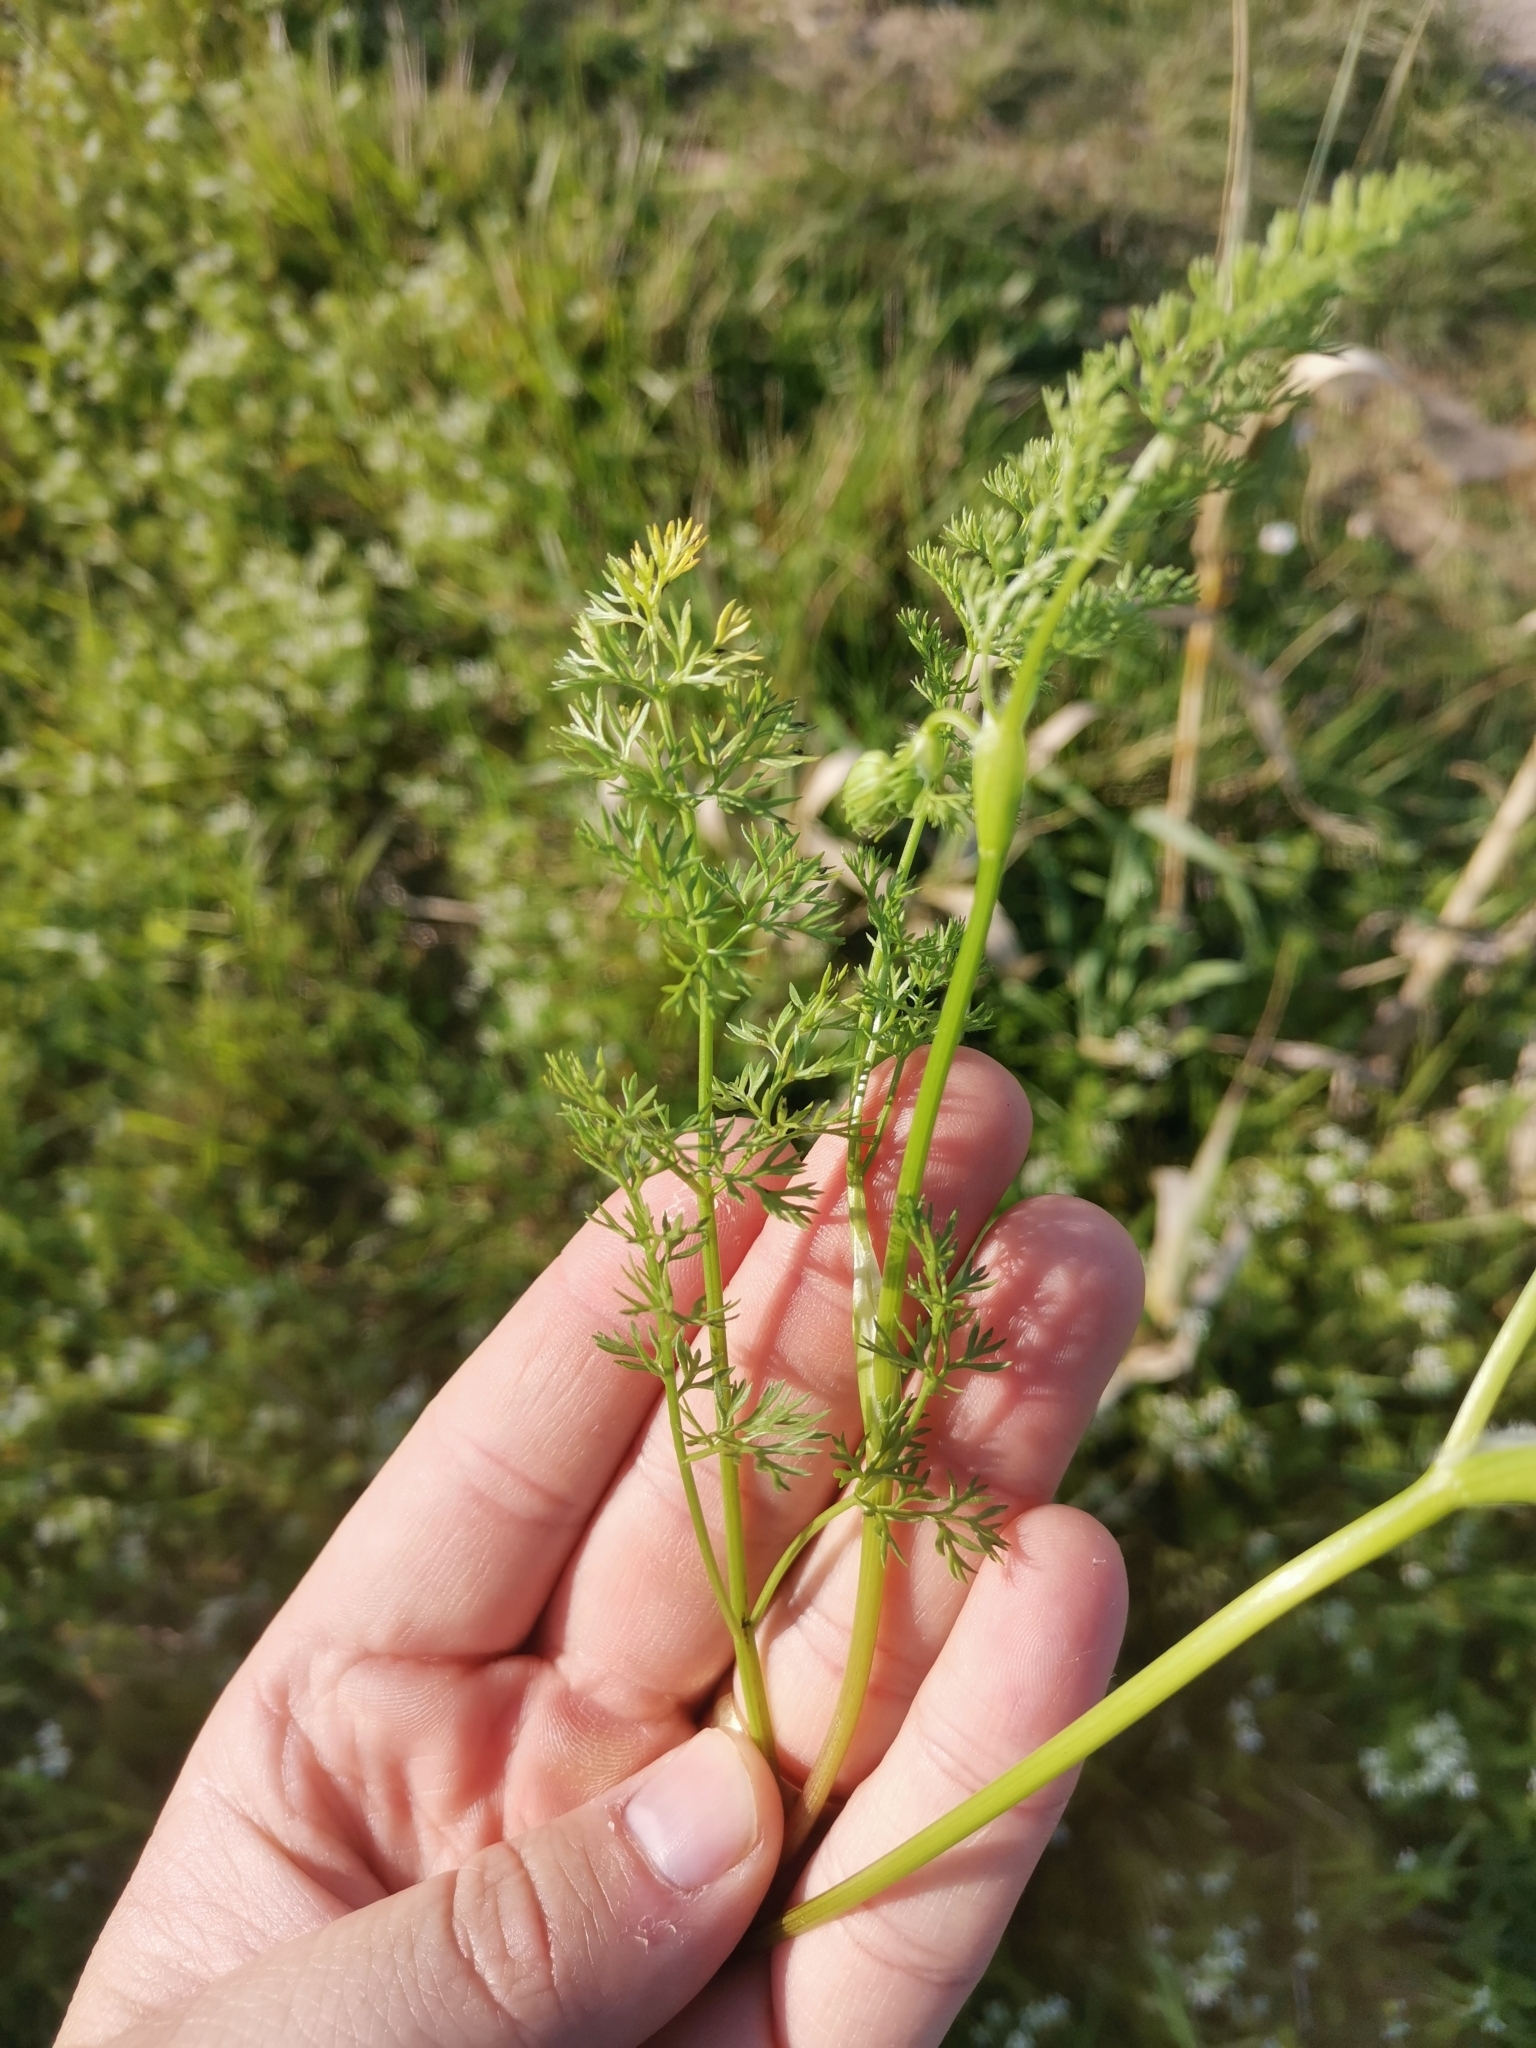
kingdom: Plantae
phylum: Tracheophyta
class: Magnoliopsida
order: Apiales
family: Apiaceae
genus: Scandix
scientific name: Scandix pecten-veneris
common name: Shepherd's-needle
